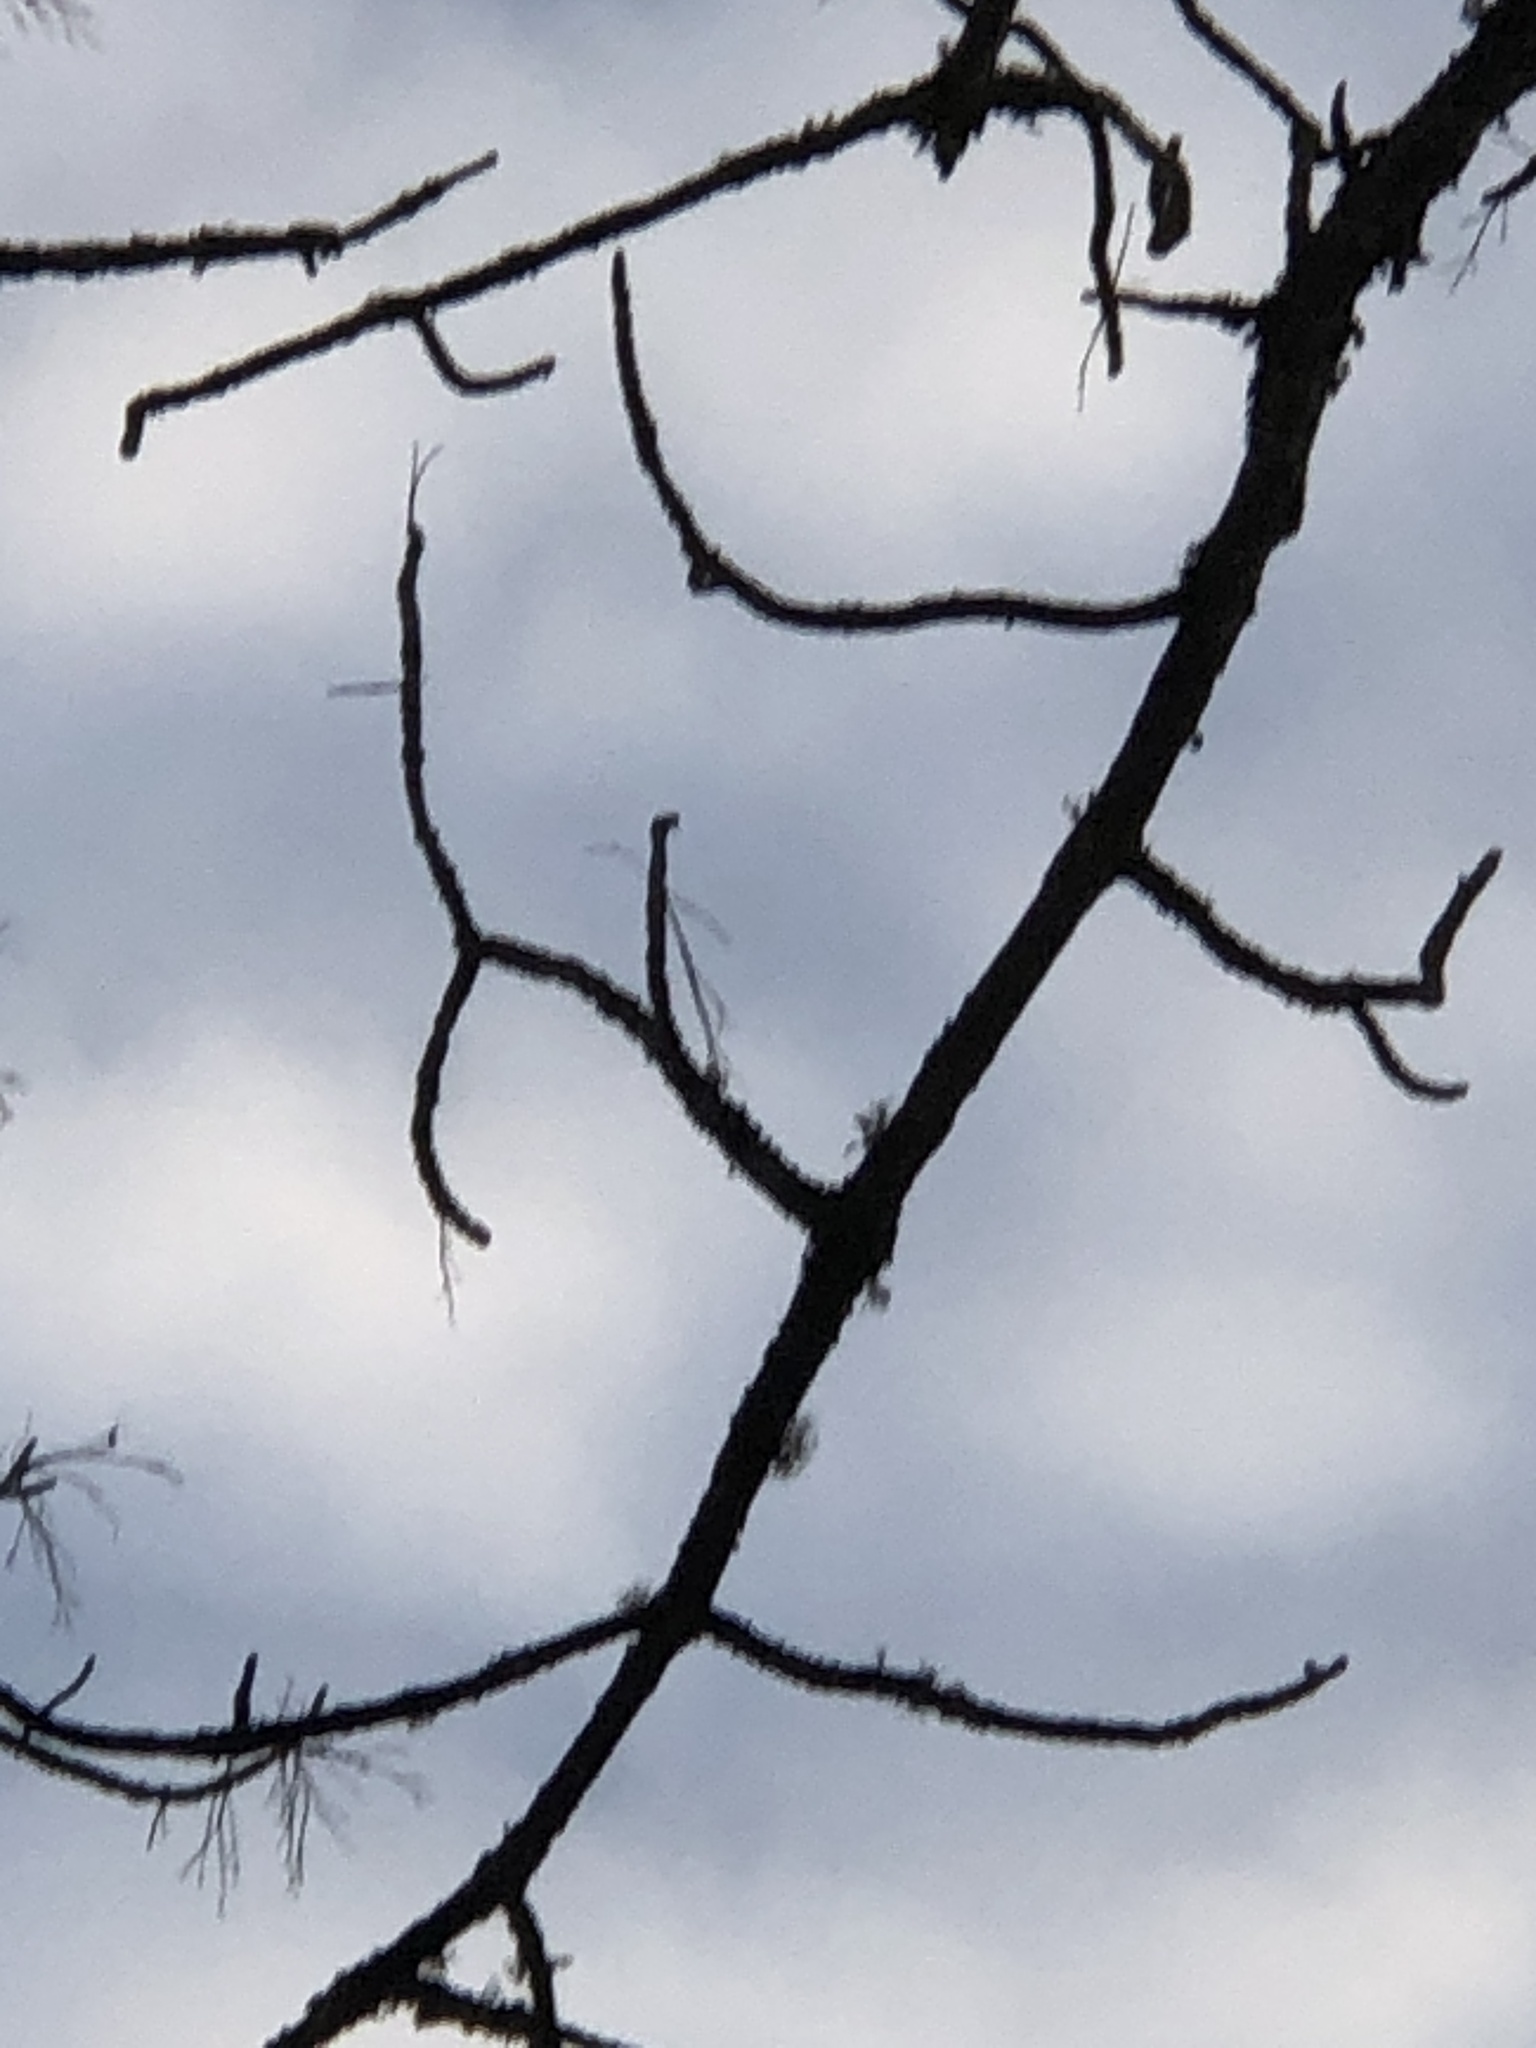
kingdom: Plantae
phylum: Tracheophyta
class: Magnoliopsida
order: Lamiales
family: Oleaceae
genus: Fraxinus
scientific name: Fraxinus nigra
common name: Black ash
